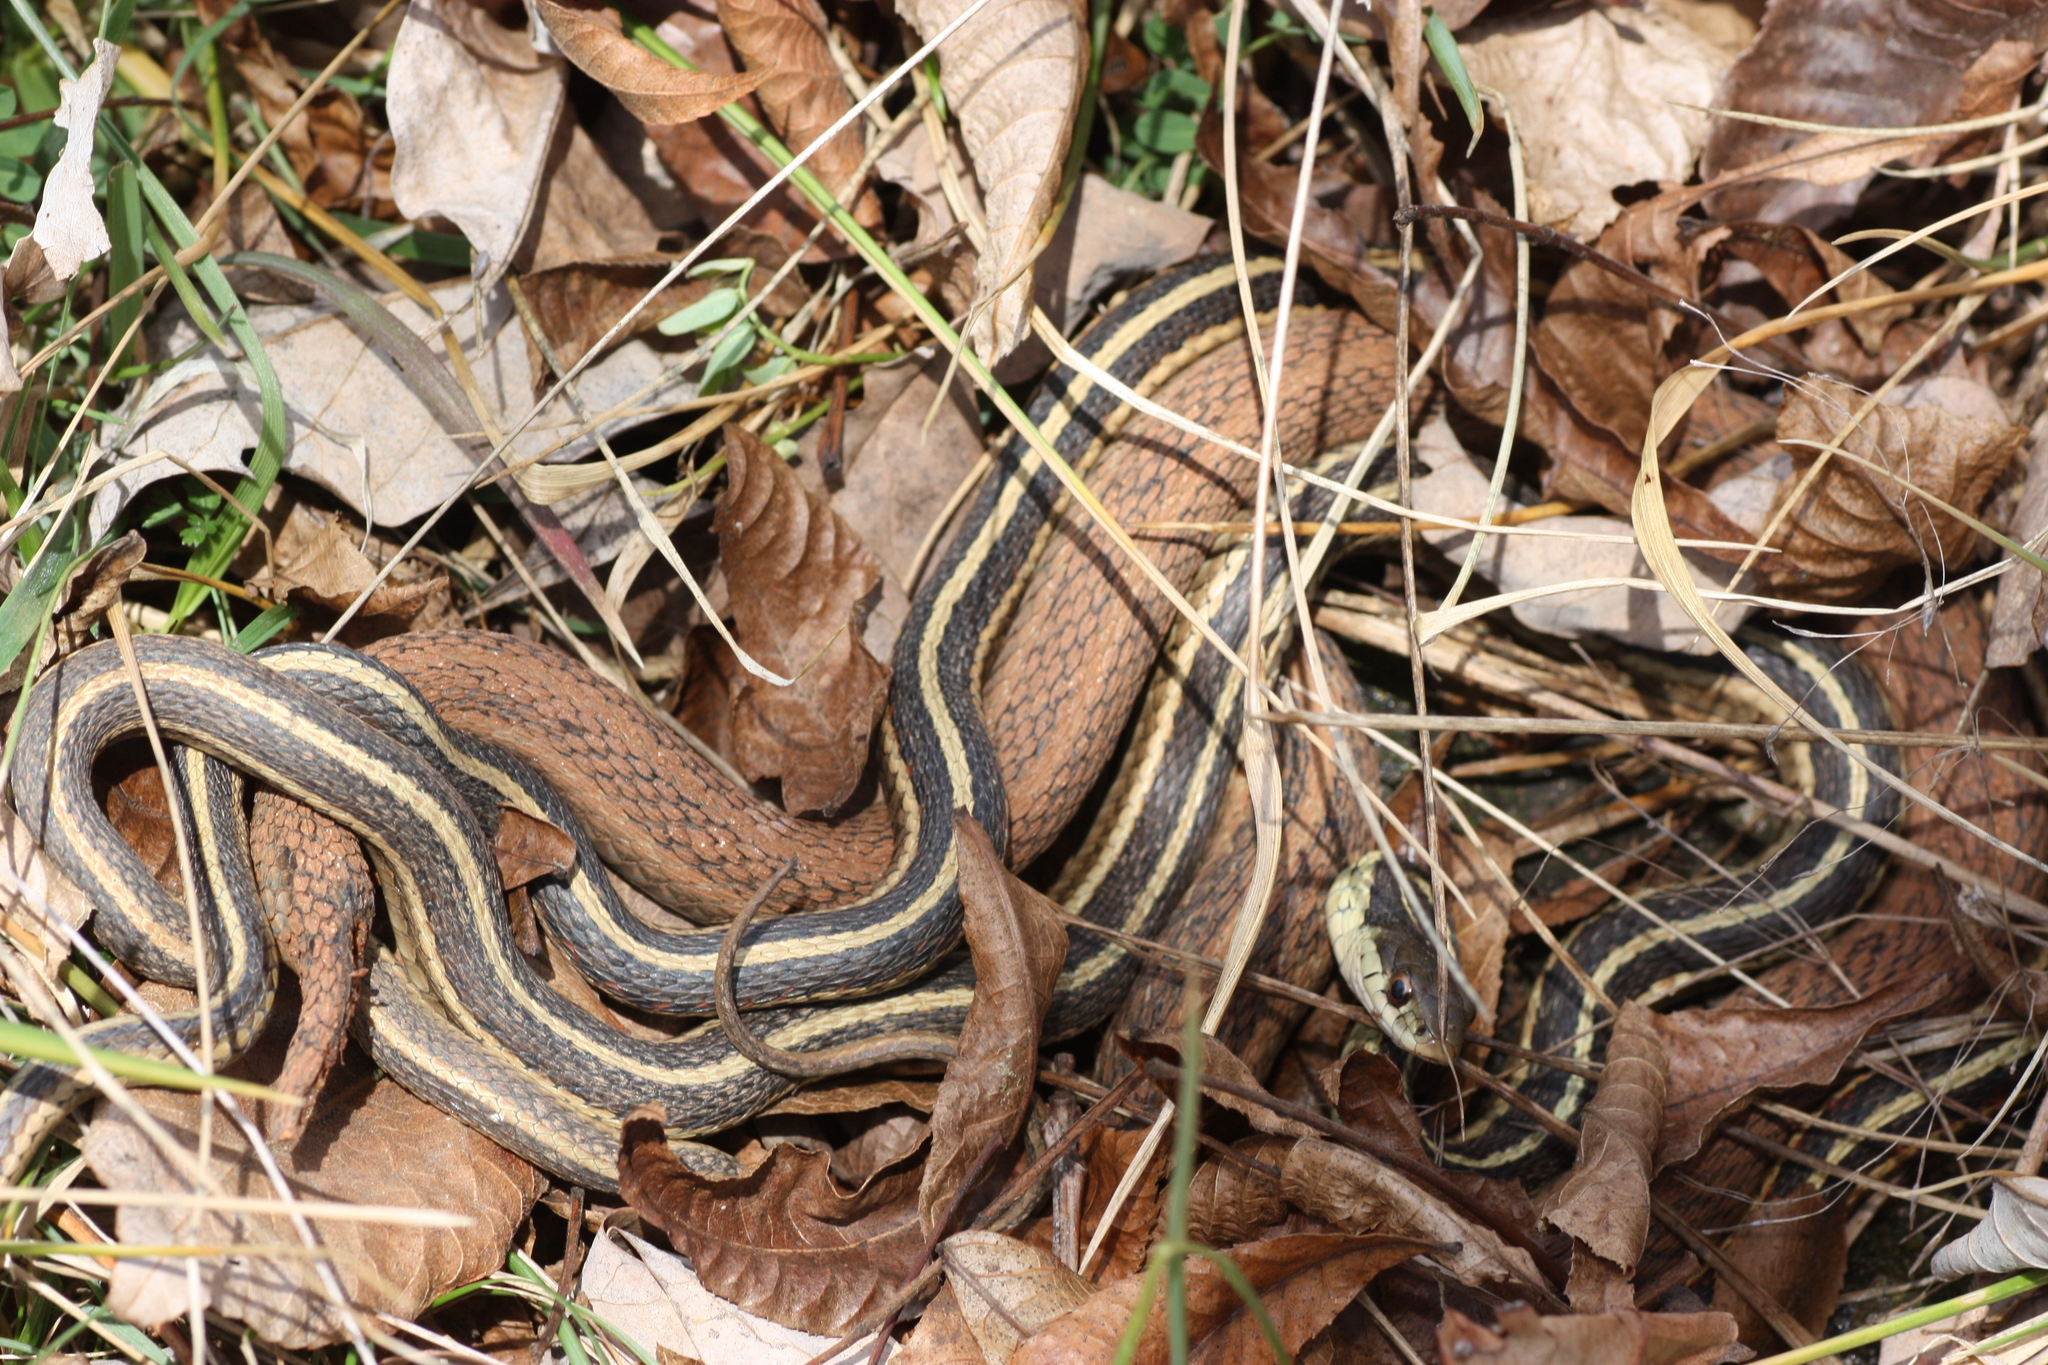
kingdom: Animalia
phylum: Chordata
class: Squamata
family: Colubridae
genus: Thamnophis
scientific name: Thamnophis sirtalis
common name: Common garter snake
